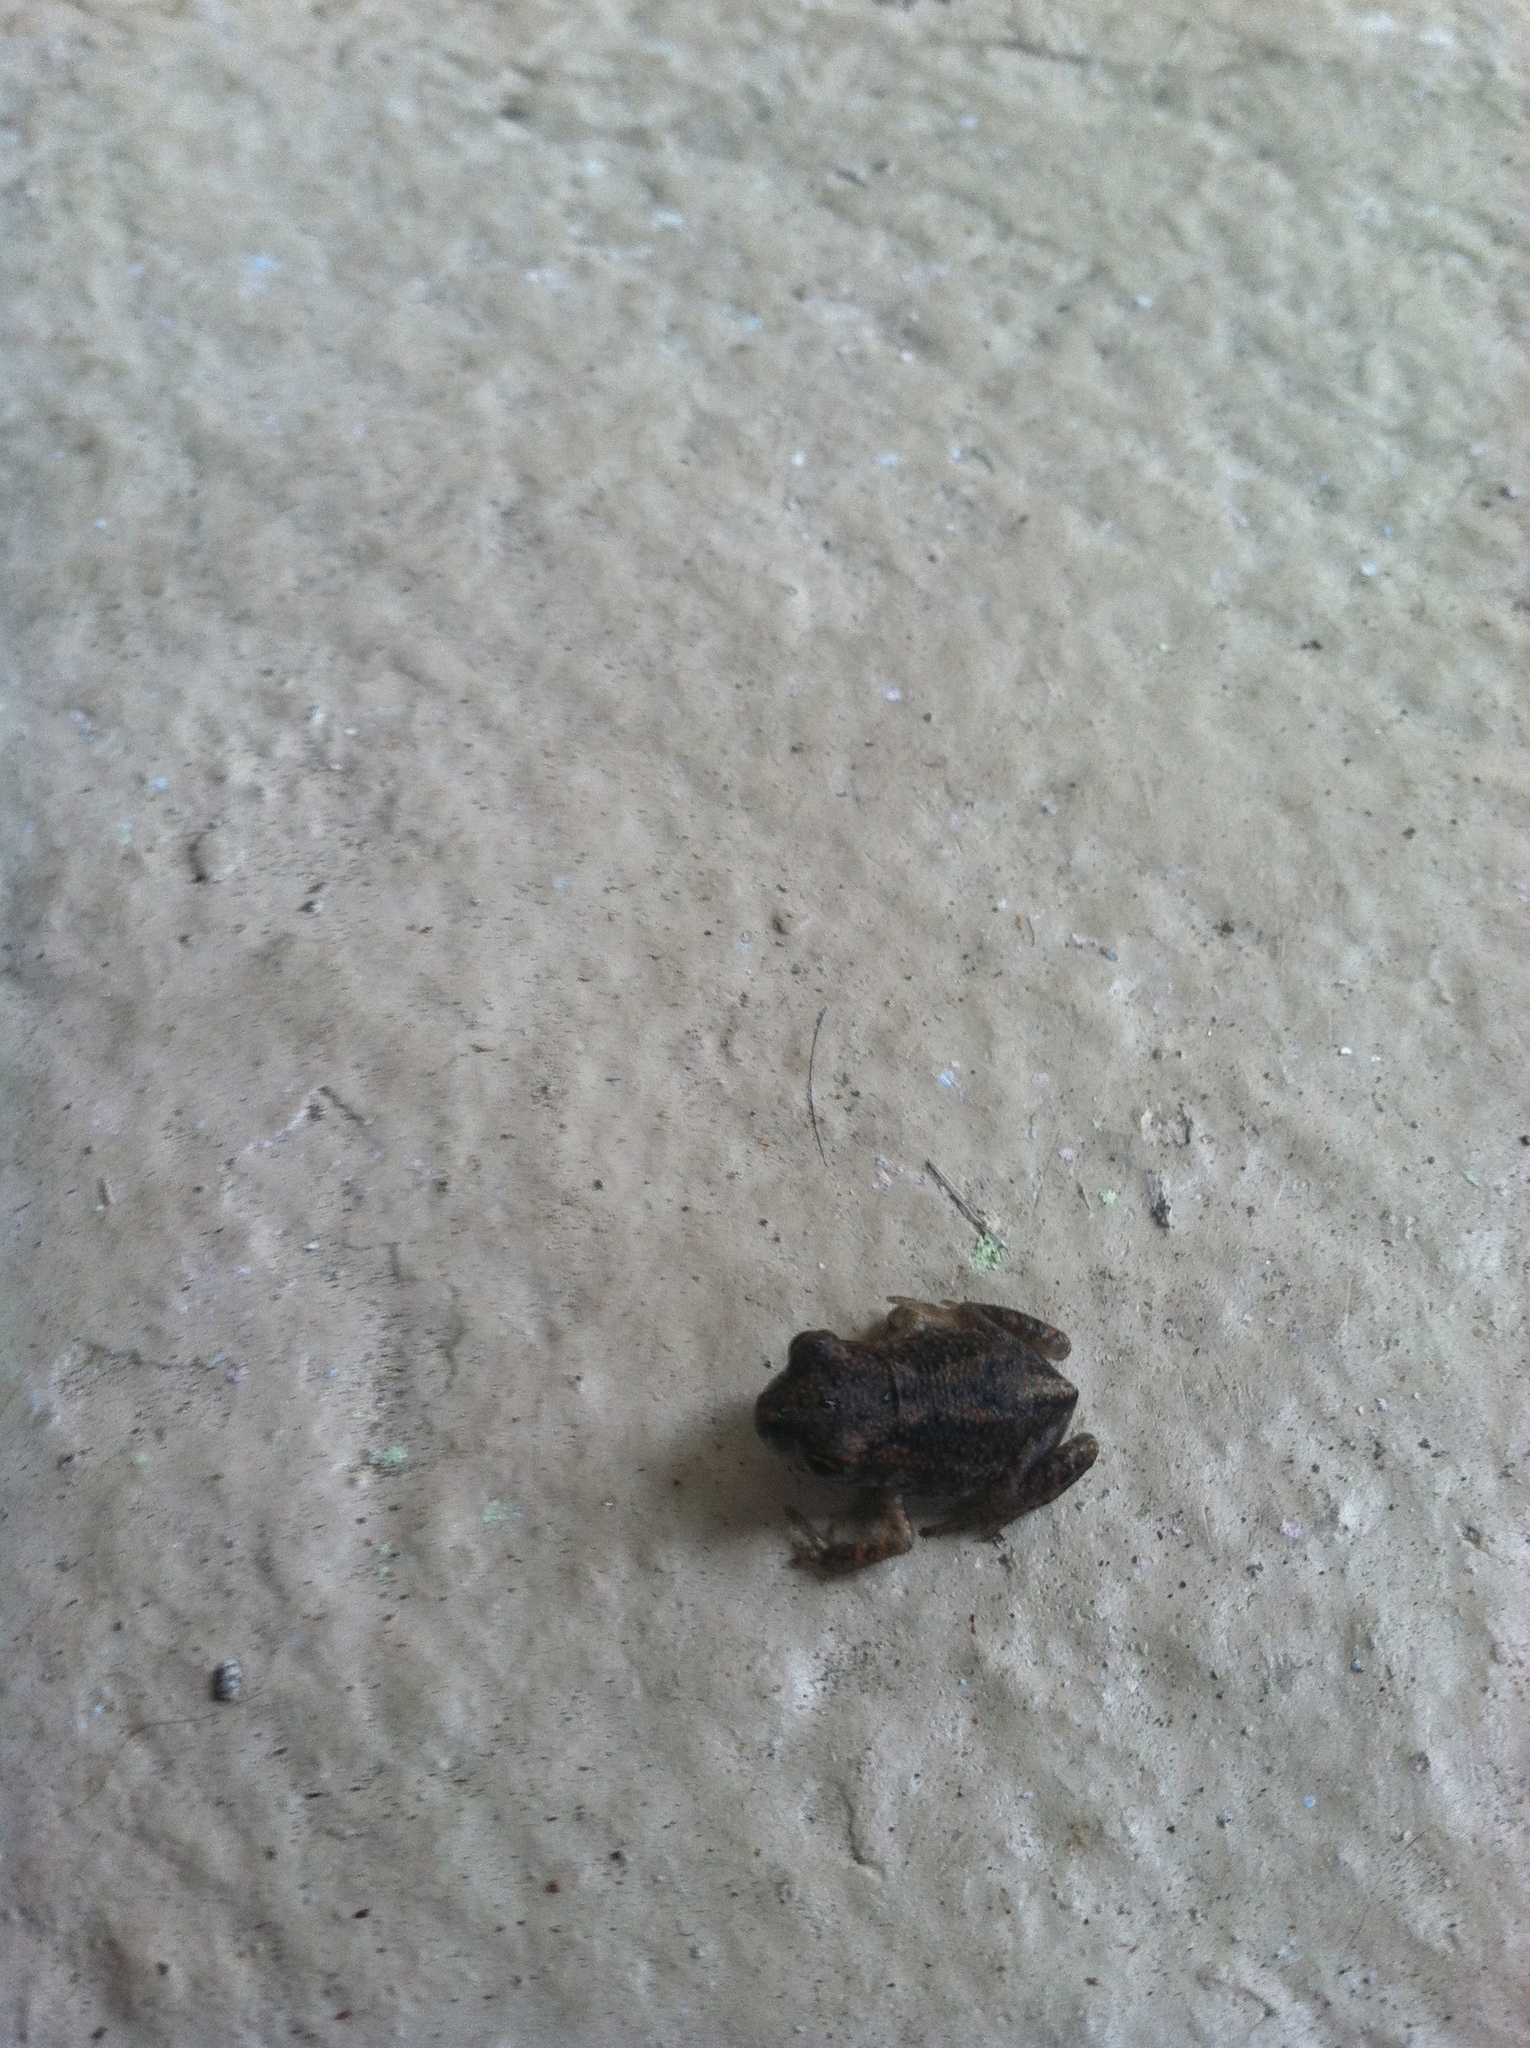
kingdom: Animalia
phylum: Chordata
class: Amphibia
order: Anura
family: Scaphiopodidae
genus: Scaphiopus
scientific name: Scaphiopus holbrookii
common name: Eastern spadefoot toad
